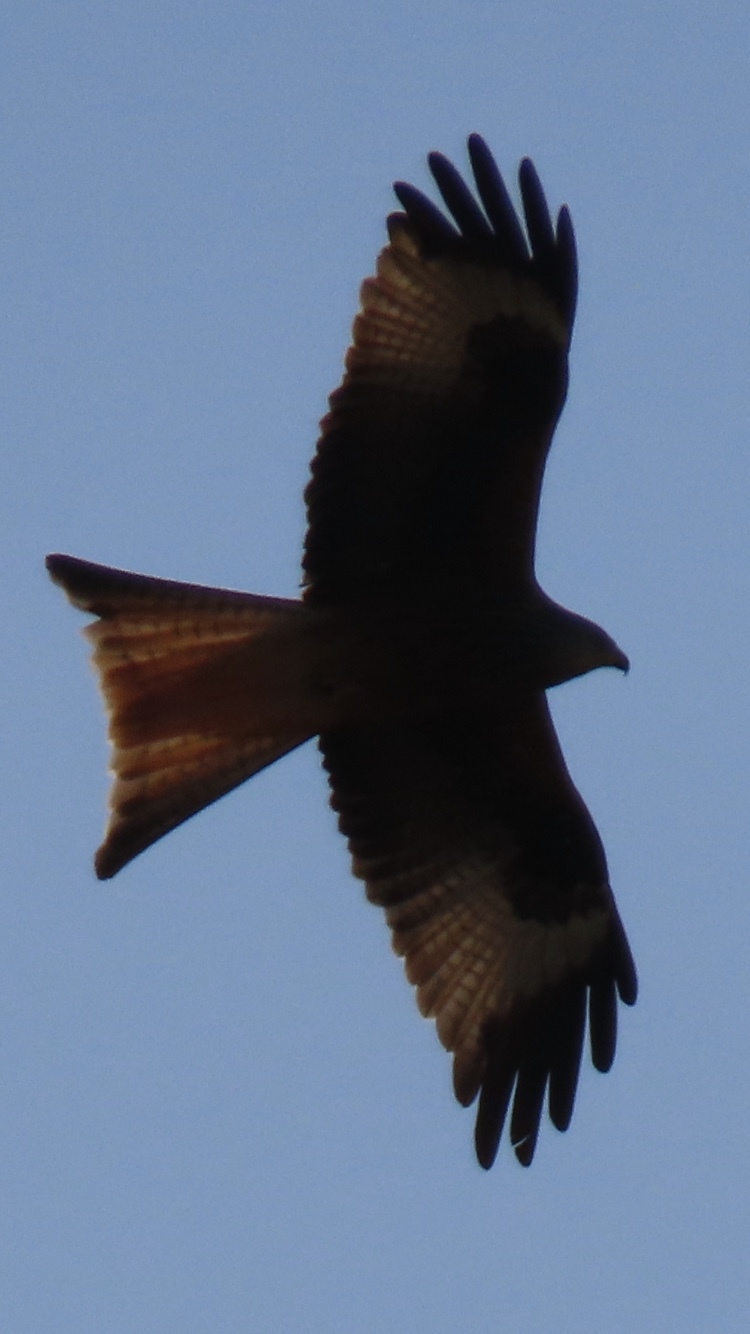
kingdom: Animalia
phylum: Chordata
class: Aves
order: Accipitriformes
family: Accipitridae
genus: Milvus
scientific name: Milvus milvus
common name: Red kite
